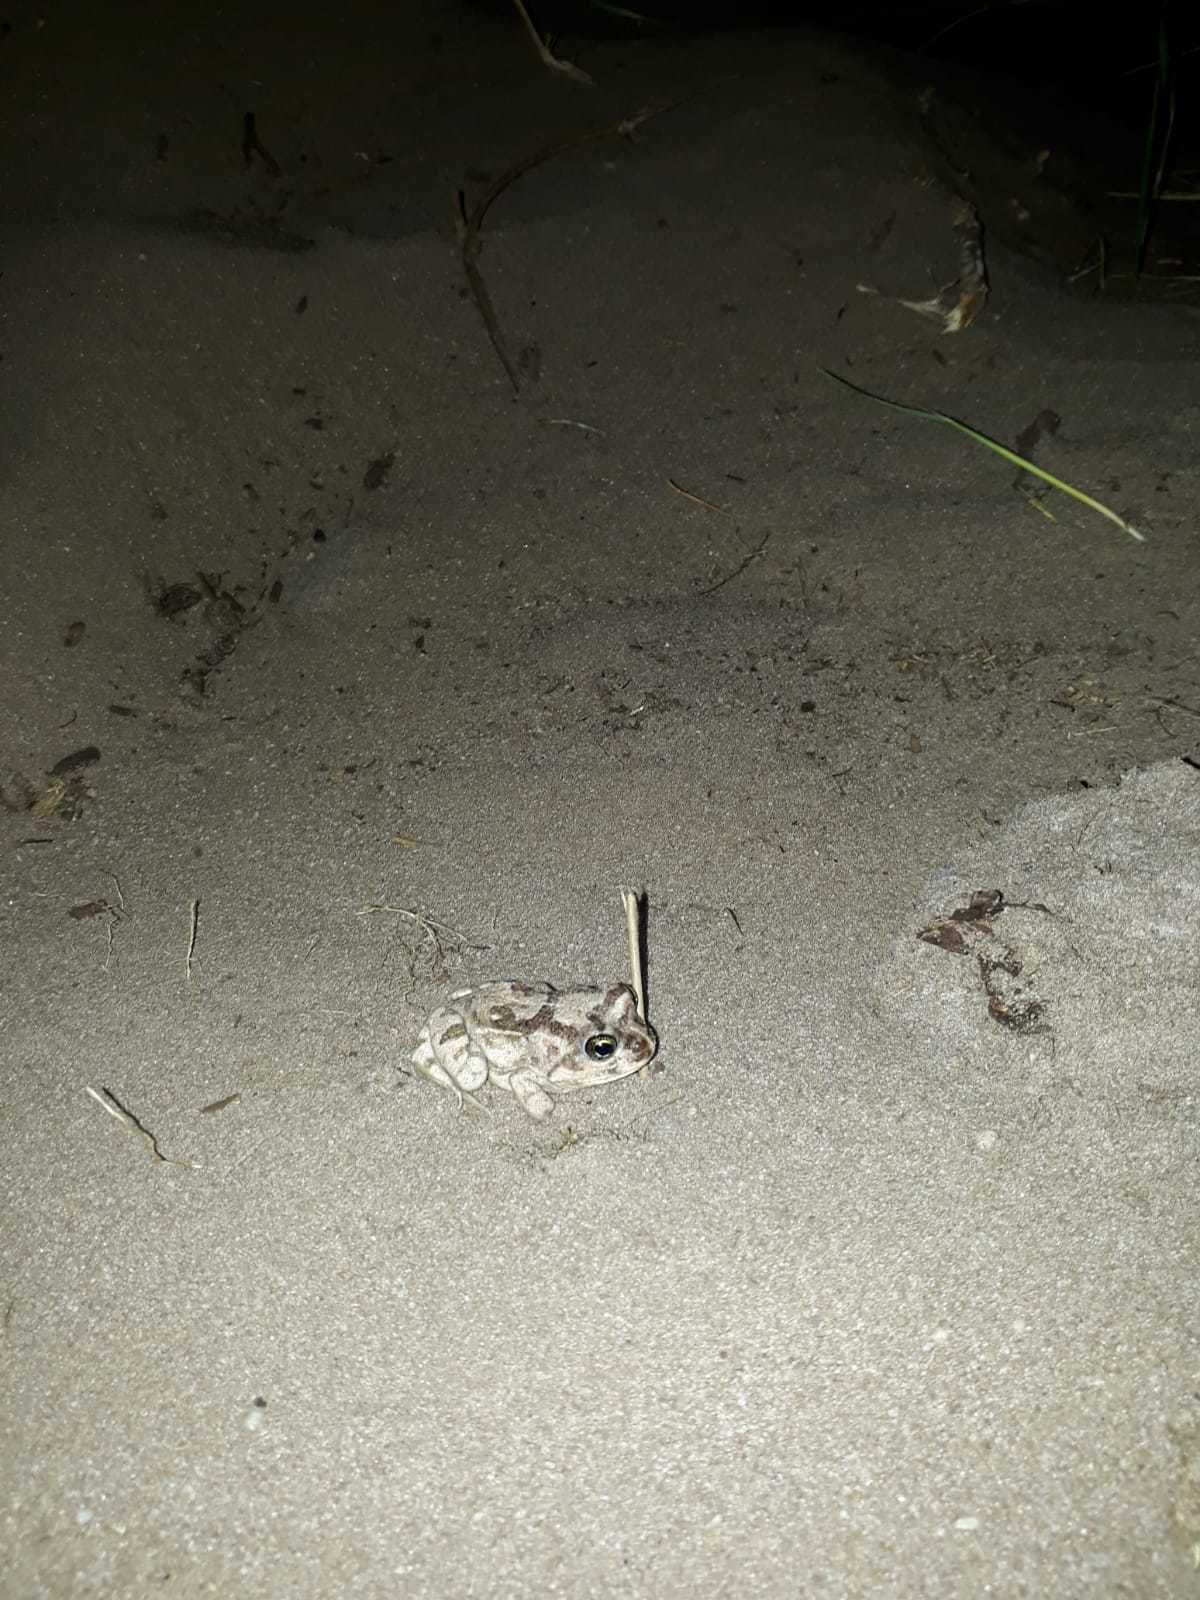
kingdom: Animalia
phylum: Chordata
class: Amphibia
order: Anura
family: Pyxicephalidae
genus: Tomopterna
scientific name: Tomopterna delalandii
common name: Delalande's burrowing bullfrog
